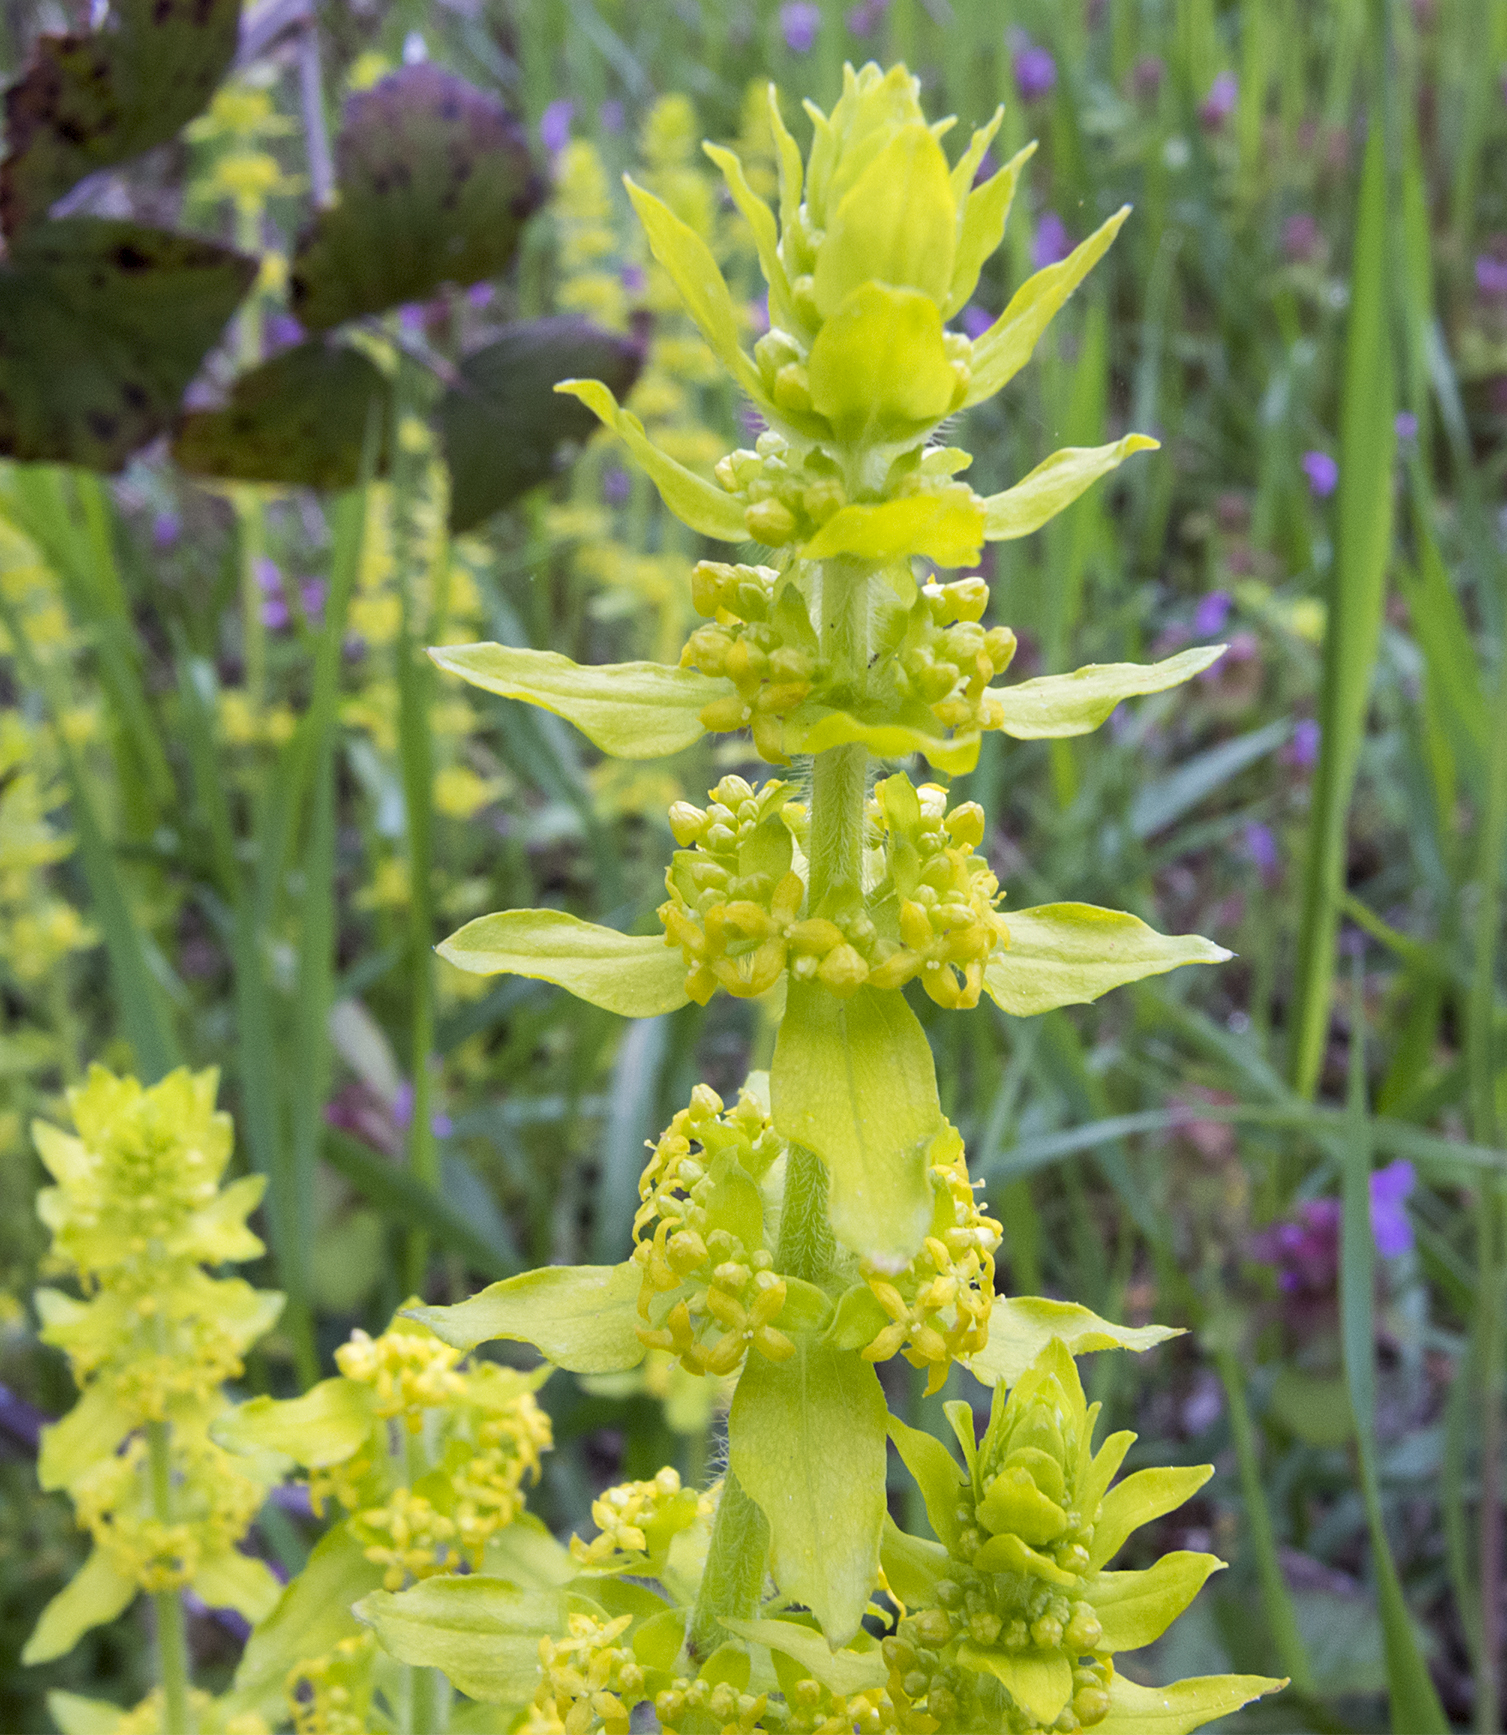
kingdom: Plantae
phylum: Tracheophyta
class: Magnoliopsida
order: Gentianales
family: Rubiaceae
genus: Cruciata
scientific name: Cruciata laevipes
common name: Crosswort
